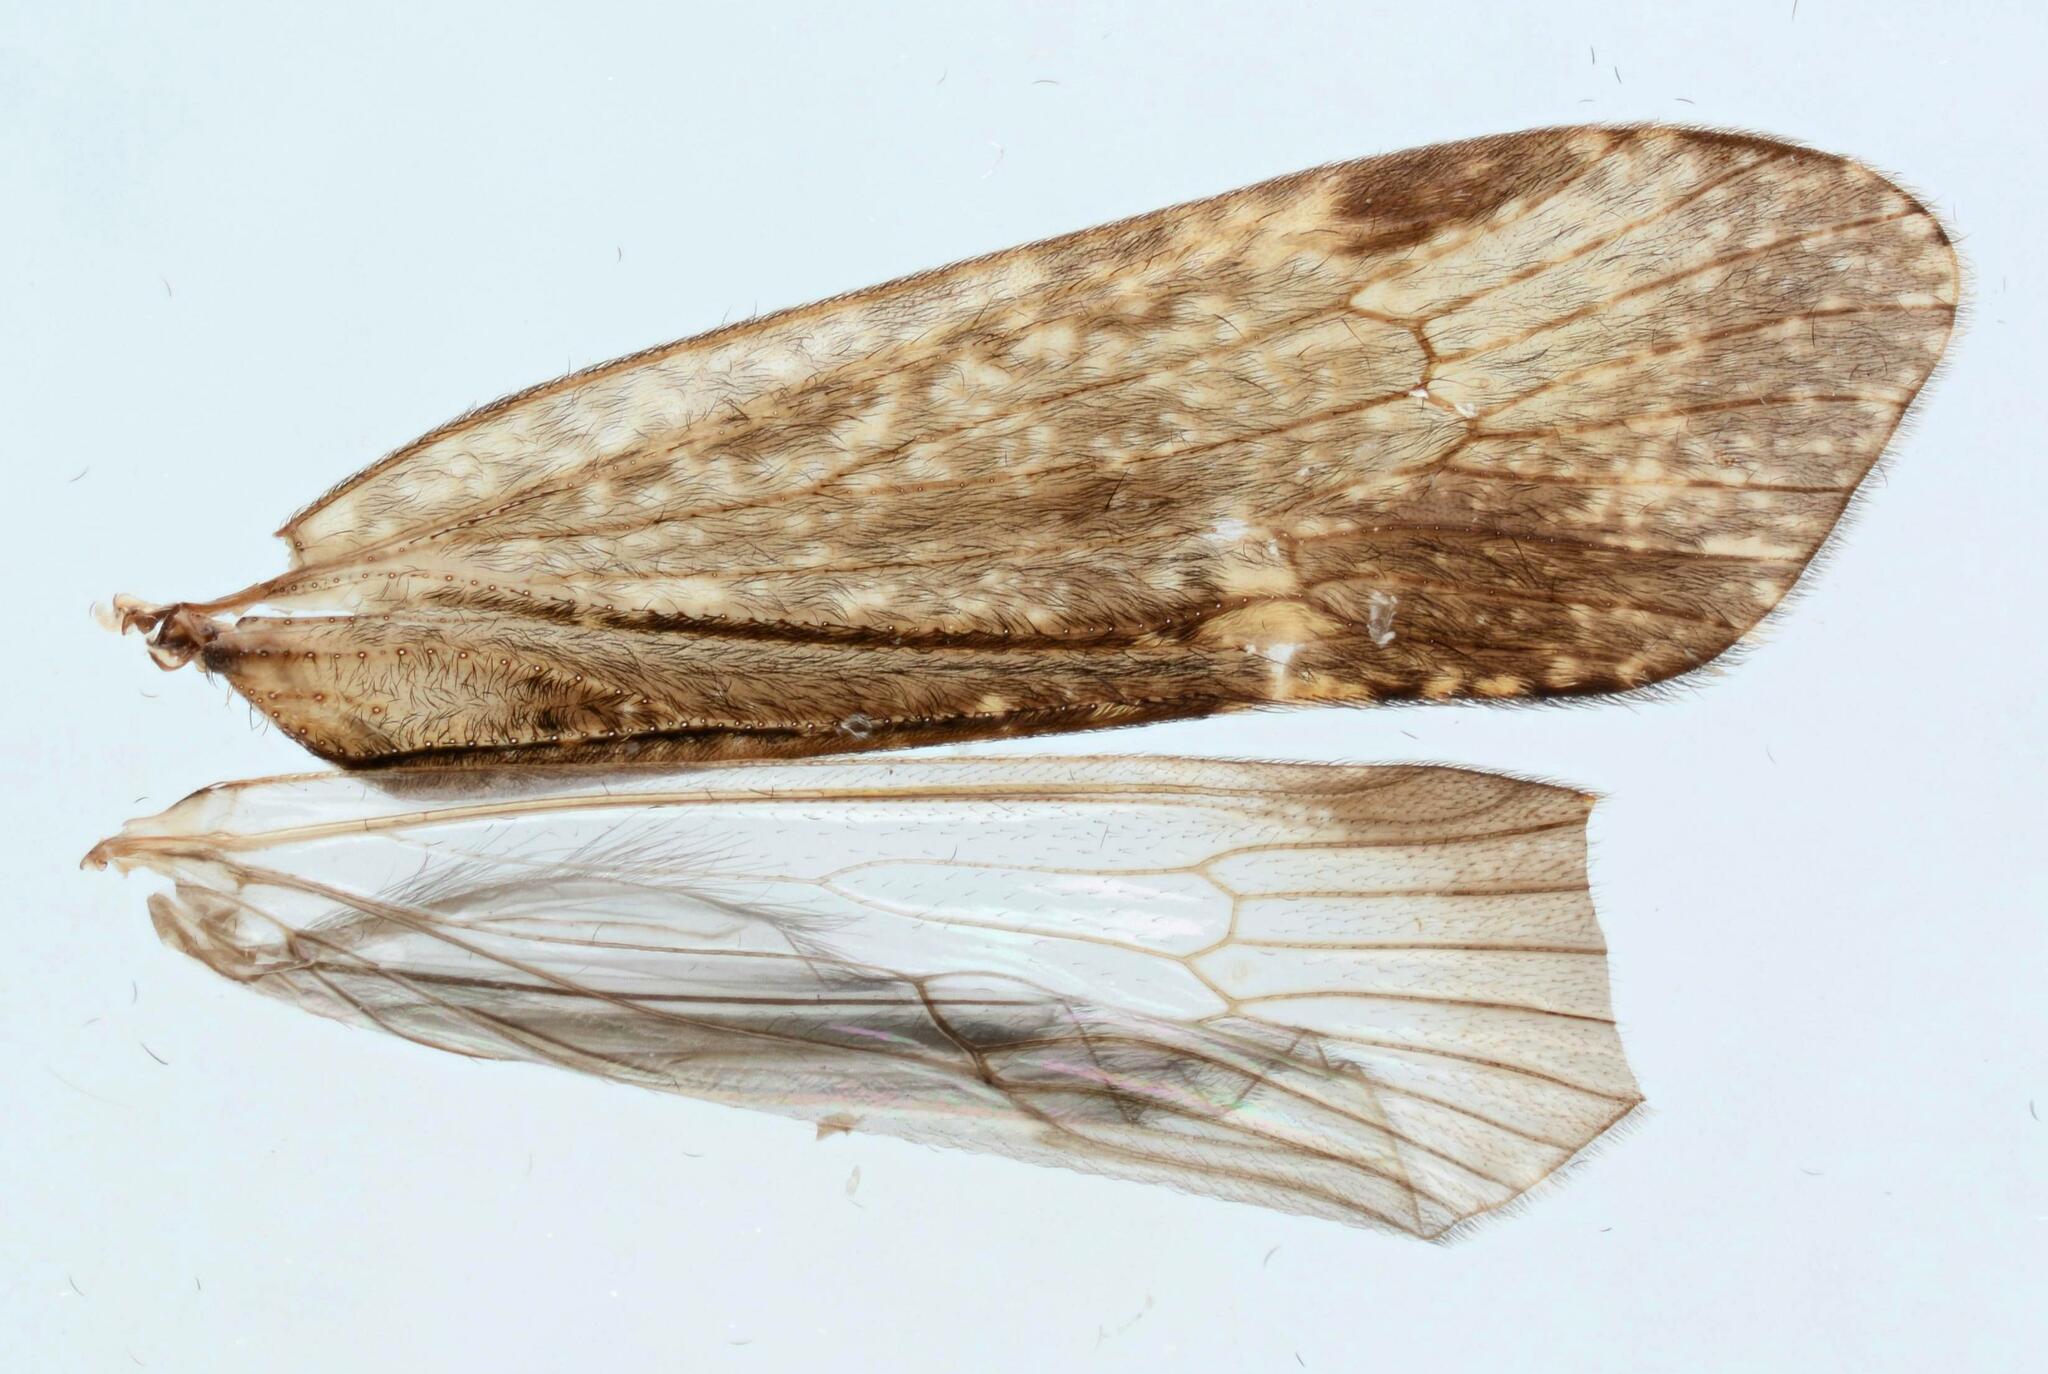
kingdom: Animalia
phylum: Arthropoda
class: Insecta
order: Trichoptera
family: Limnephilidae
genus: Limnephilus
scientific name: Limnephilus sparsus
